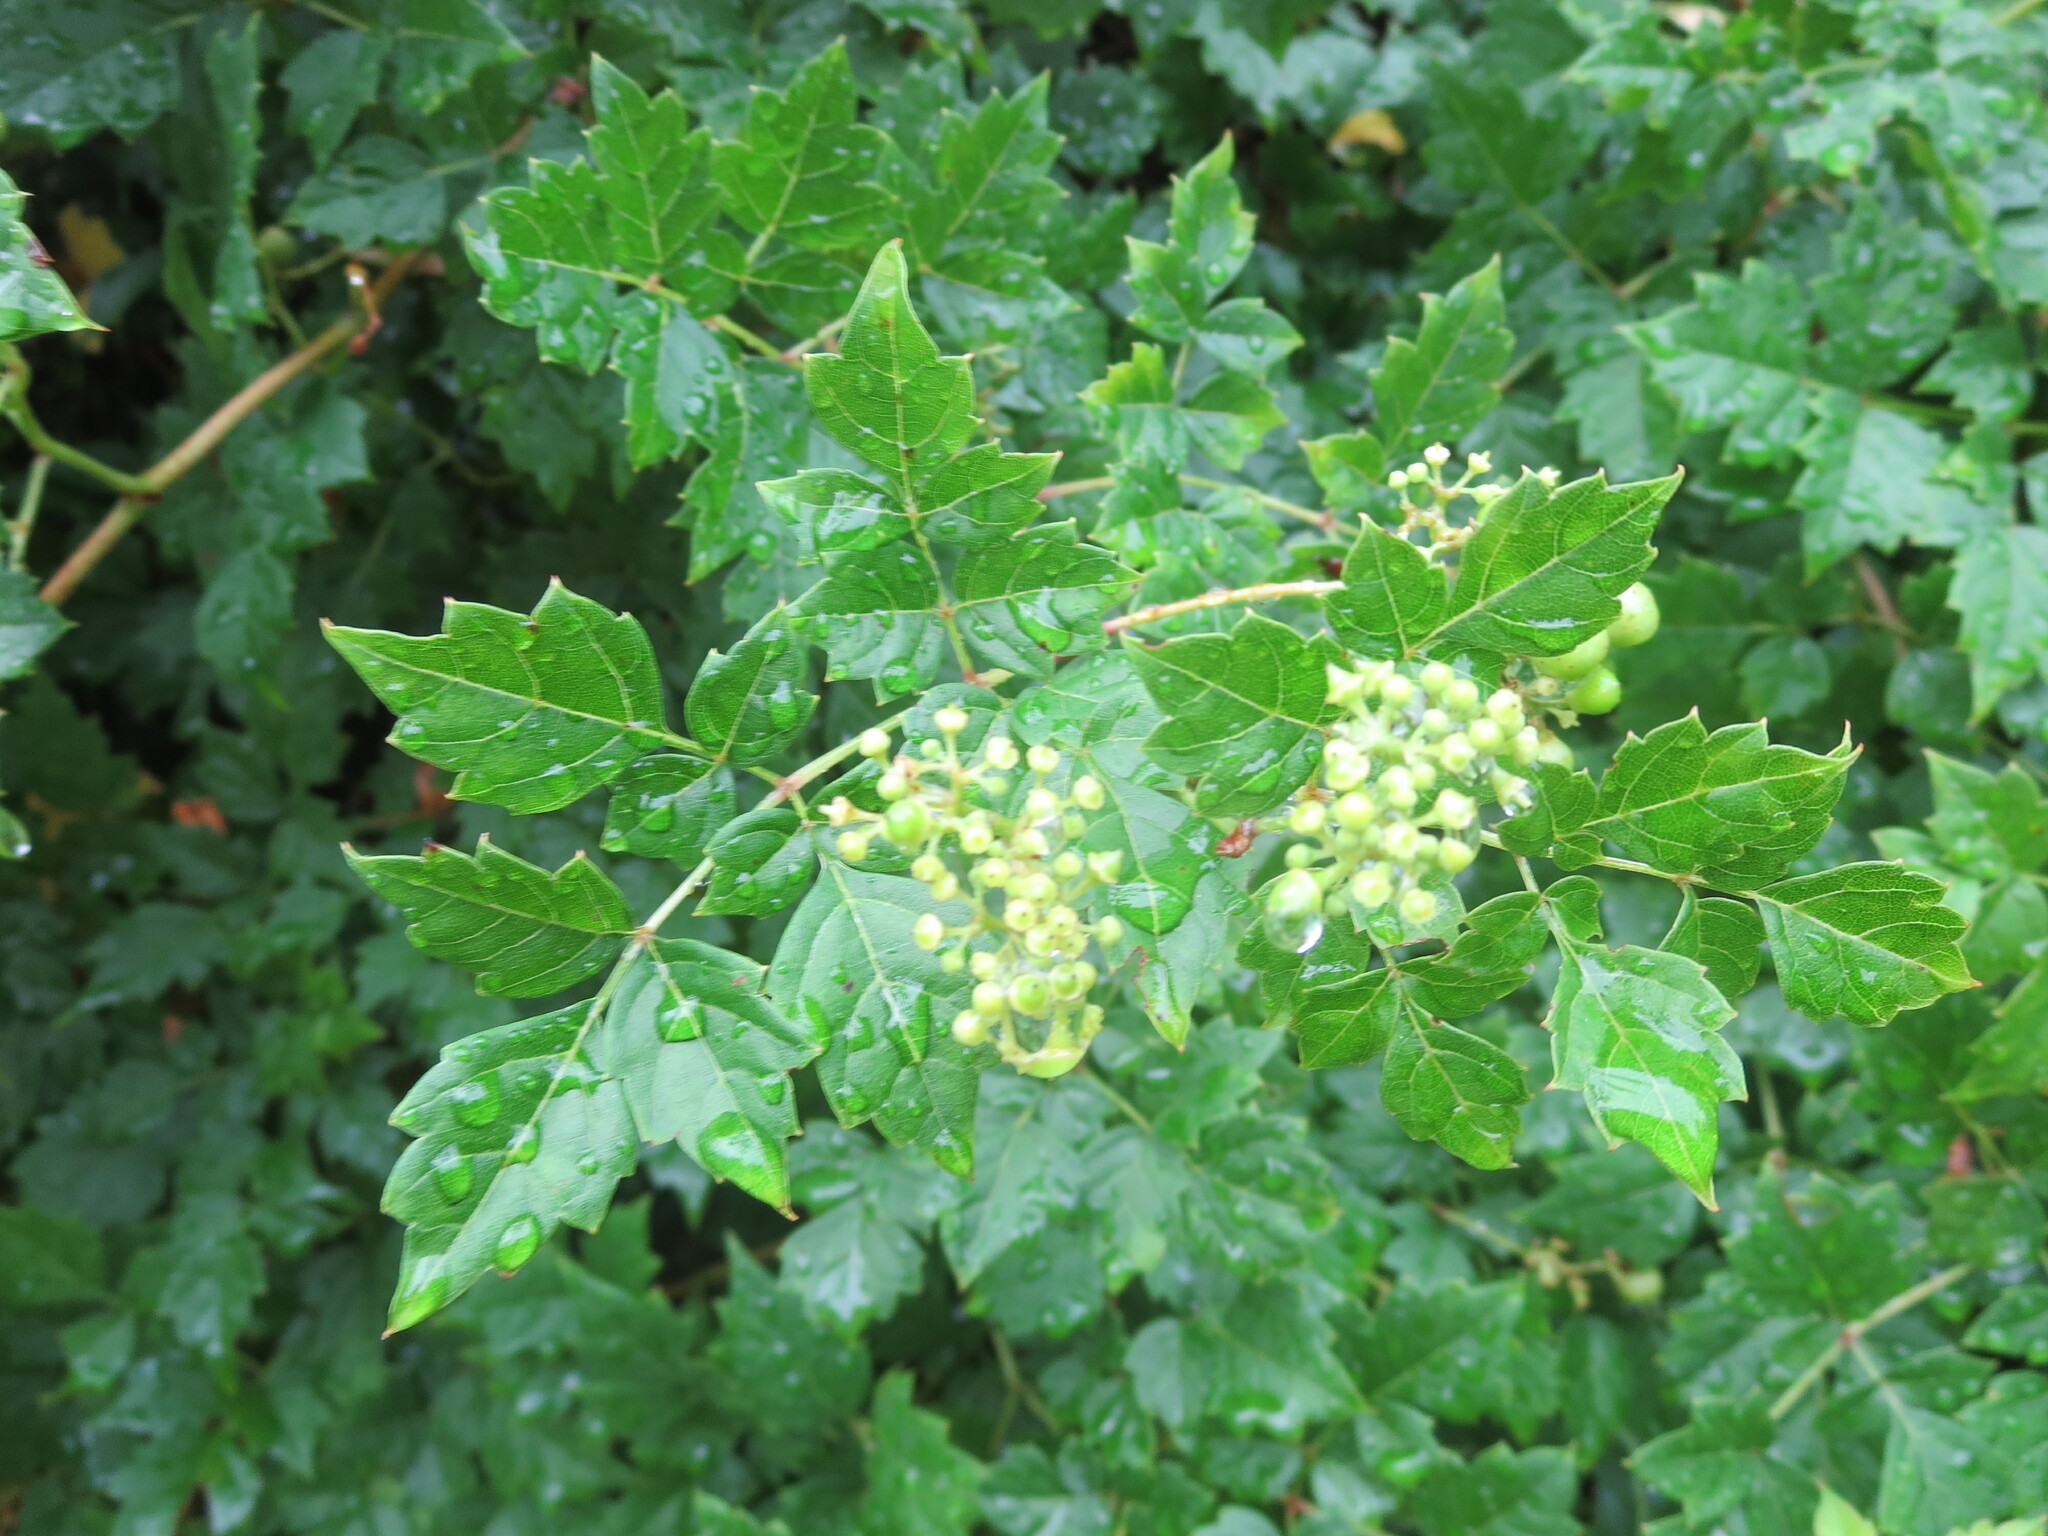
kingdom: Plantae
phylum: Tracheophyta
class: Magnoliopsida
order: Vitales
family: Vitaceae
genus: Nekemias
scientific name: Nekemias arborea
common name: Peppervine
